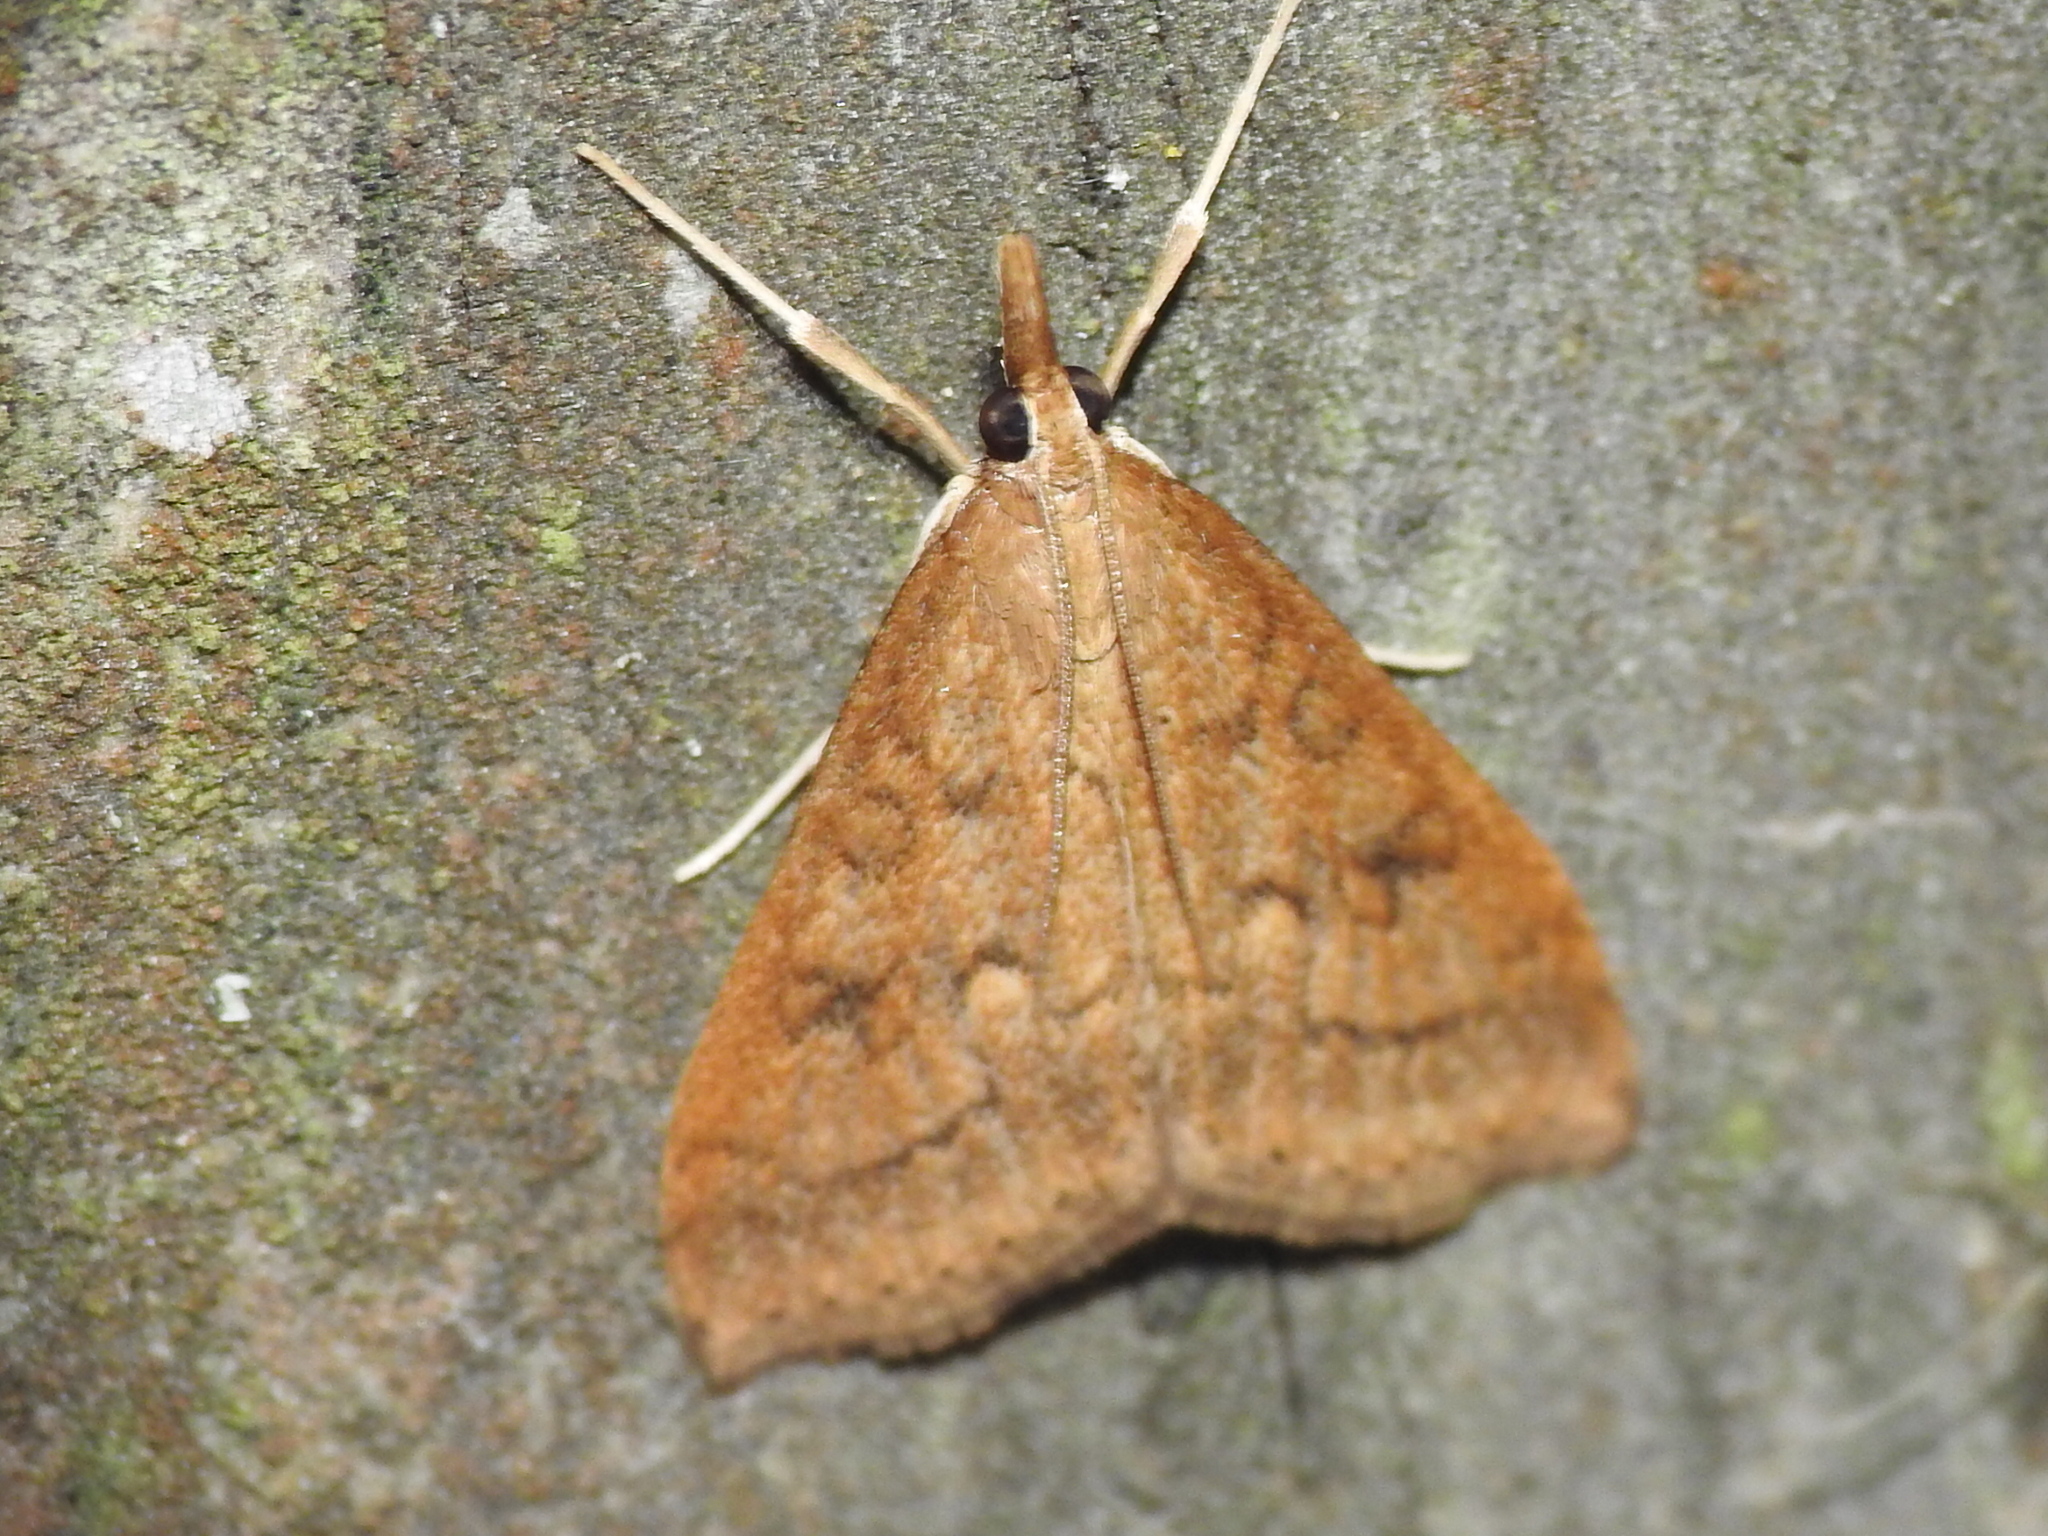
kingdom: Animalia
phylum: Arthropoda
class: Insecta
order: Lepidoptera
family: Crambidae
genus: Udea
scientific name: Udea rubigalis
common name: Celery leaftier moth
